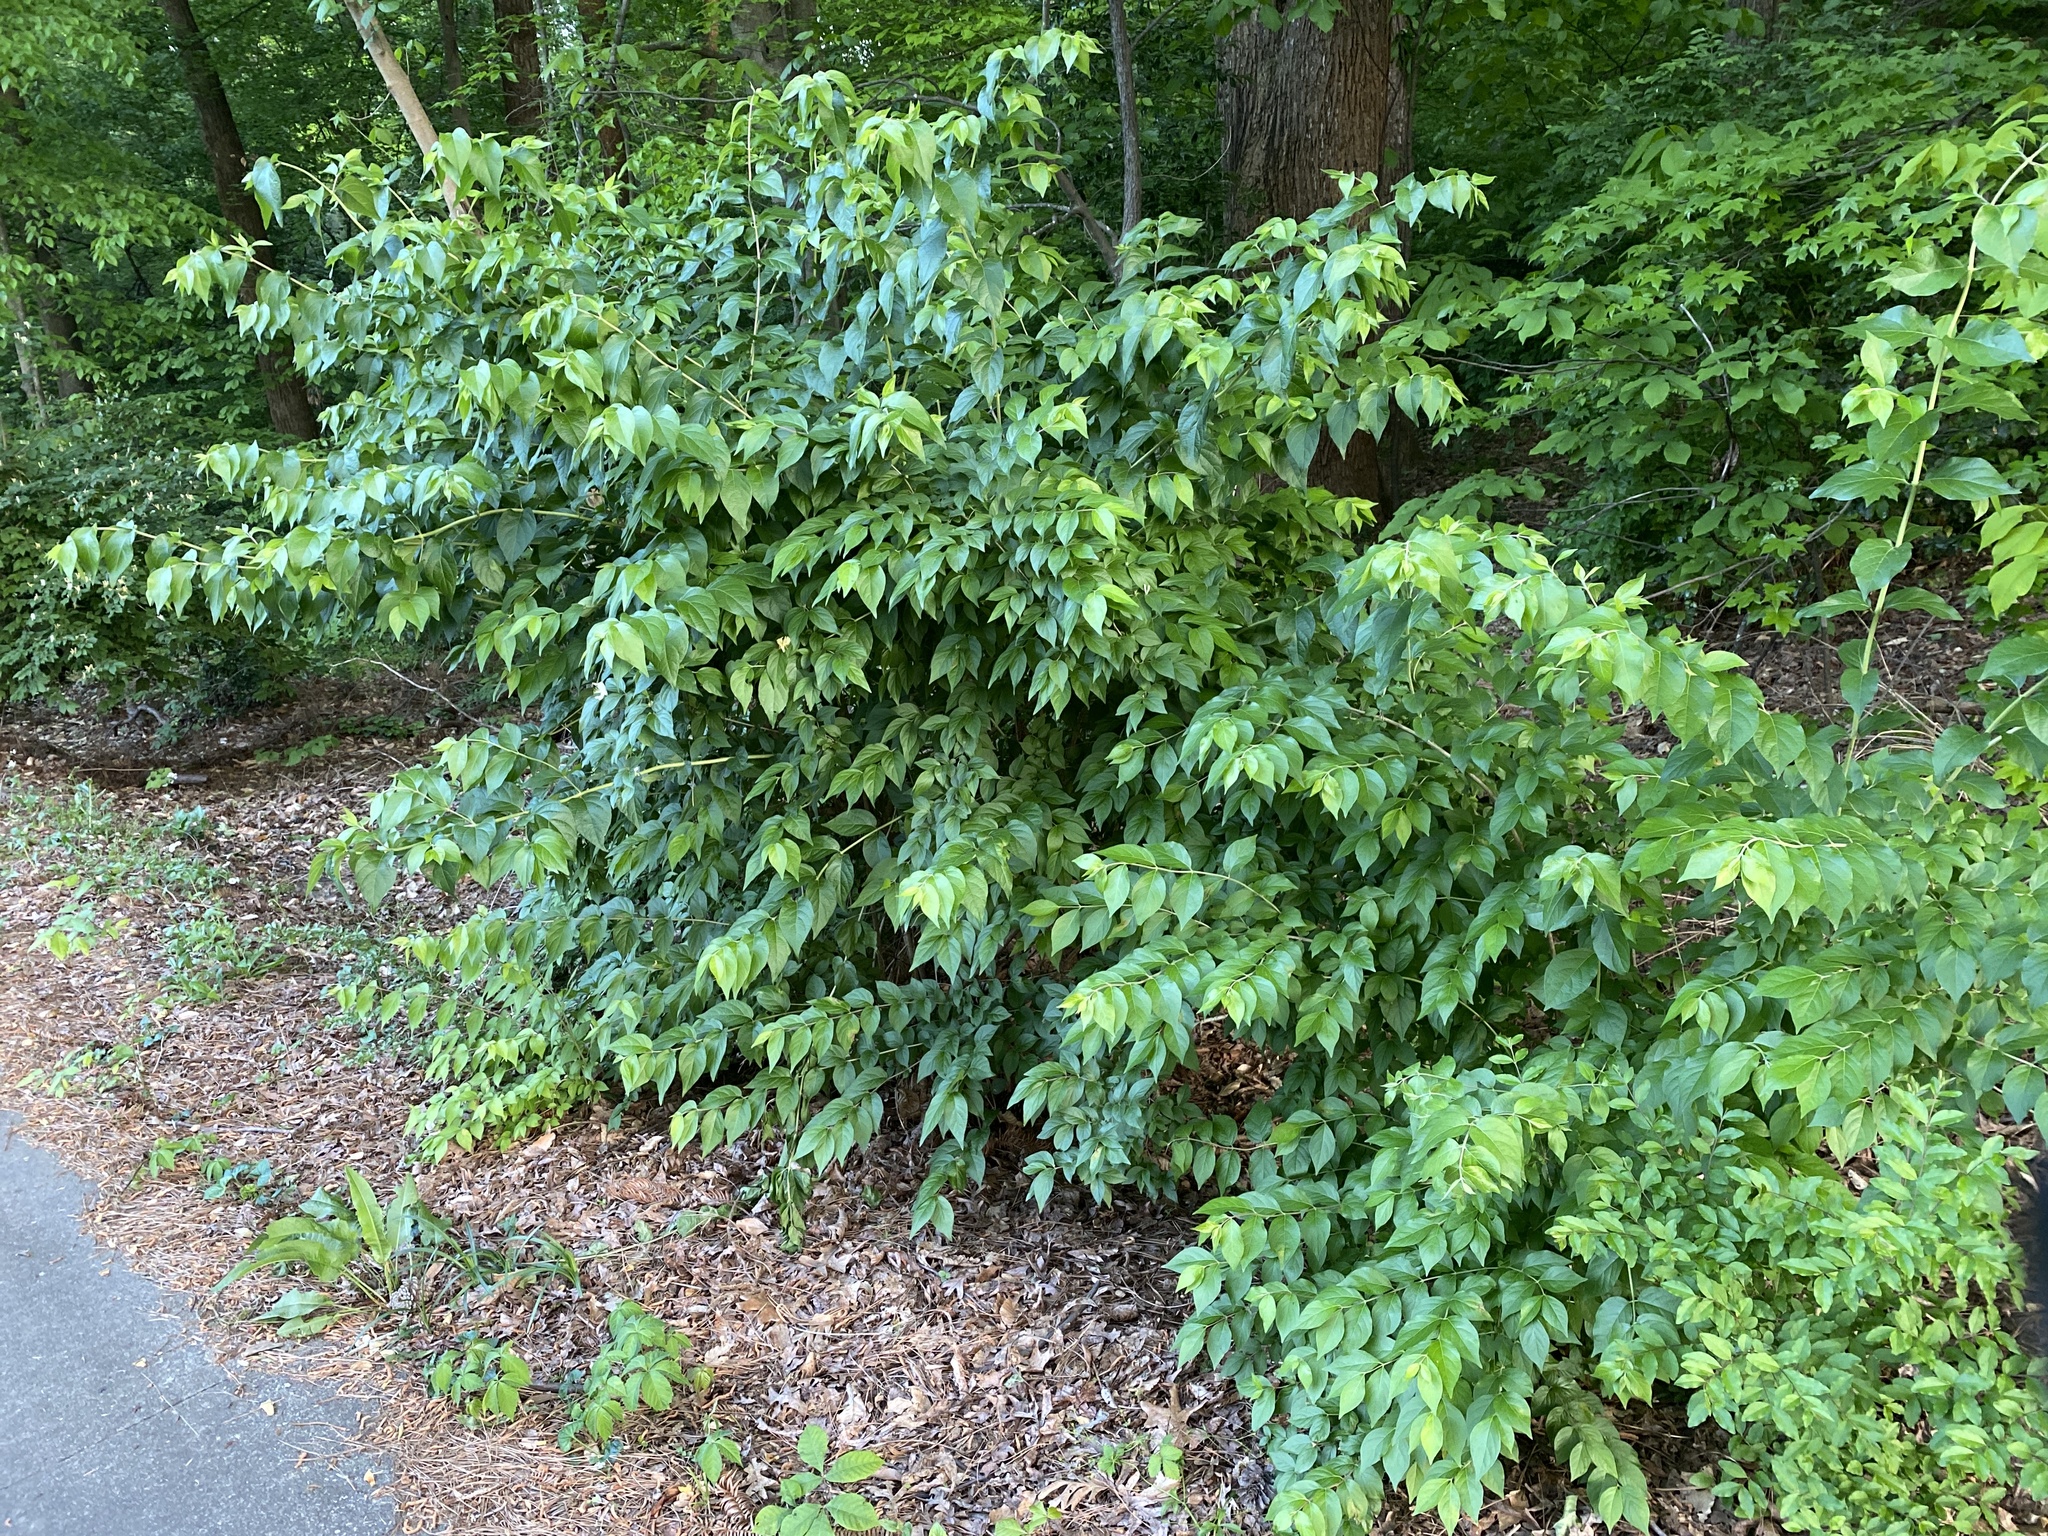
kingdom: Plantae
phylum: Tracheophyta
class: Magnoliopsida
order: Dipsacales
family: Caprifoliaceae
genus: Lonicera
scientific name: Lonicera maackii
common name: Amur honeysuckle
